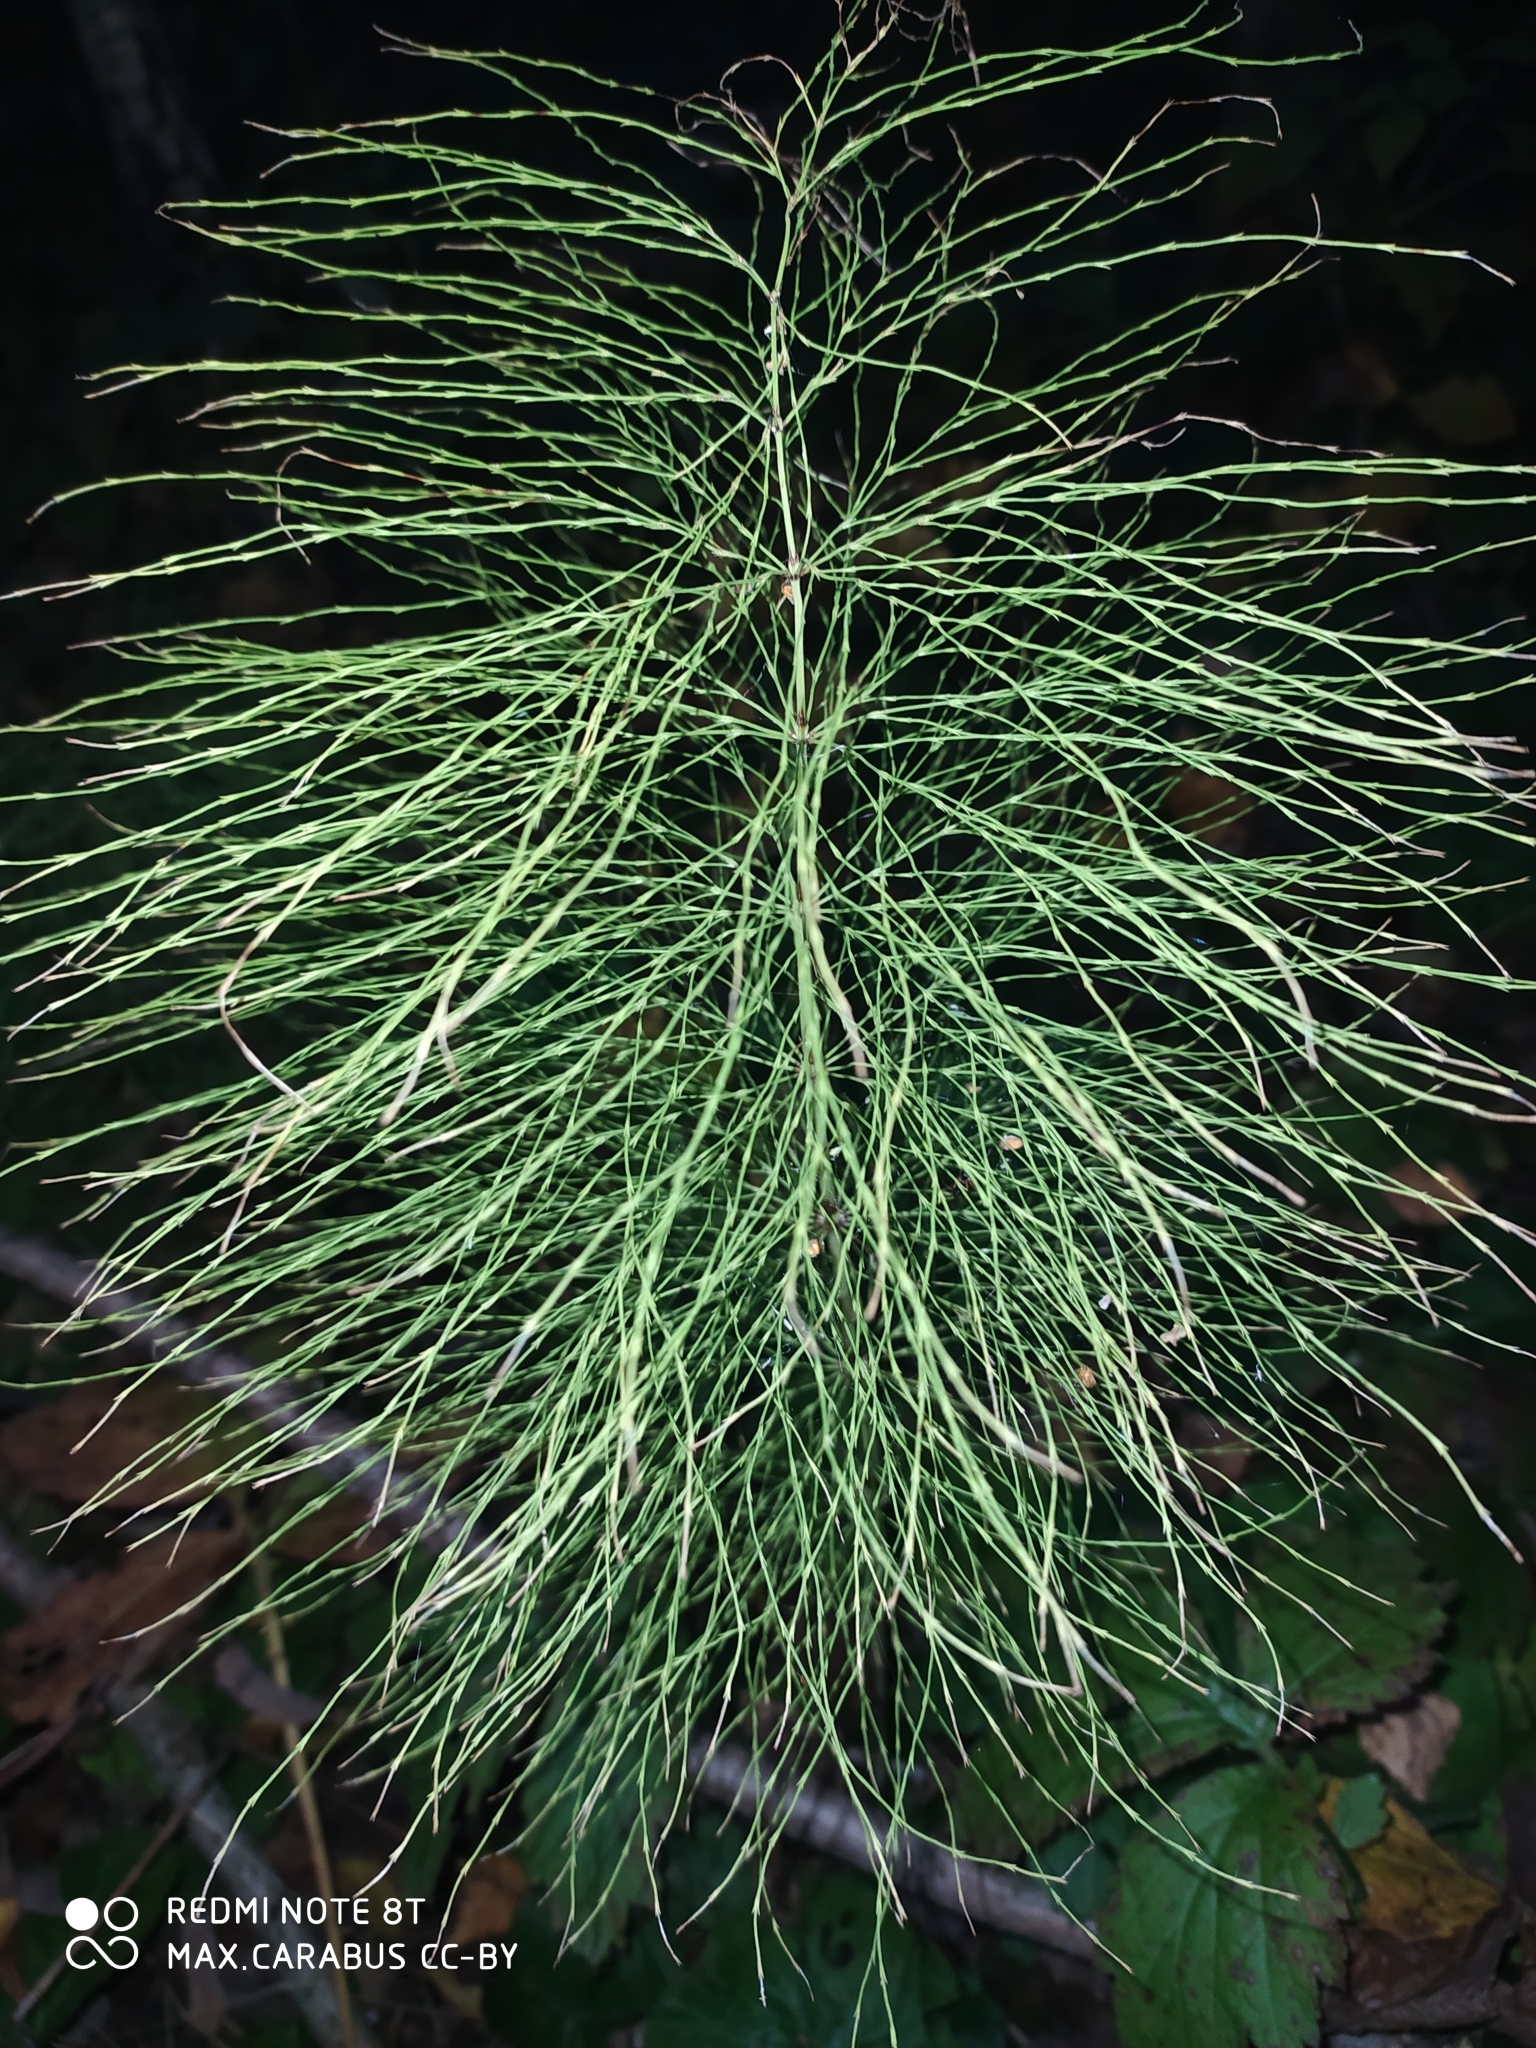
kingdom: Plantae
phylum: Tracheophyta
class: Polypodiopsida
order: Equisetales
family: Equisetaceae
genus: Equisetum
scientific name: Equisetum sylvaticum
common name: Wood horsetail
